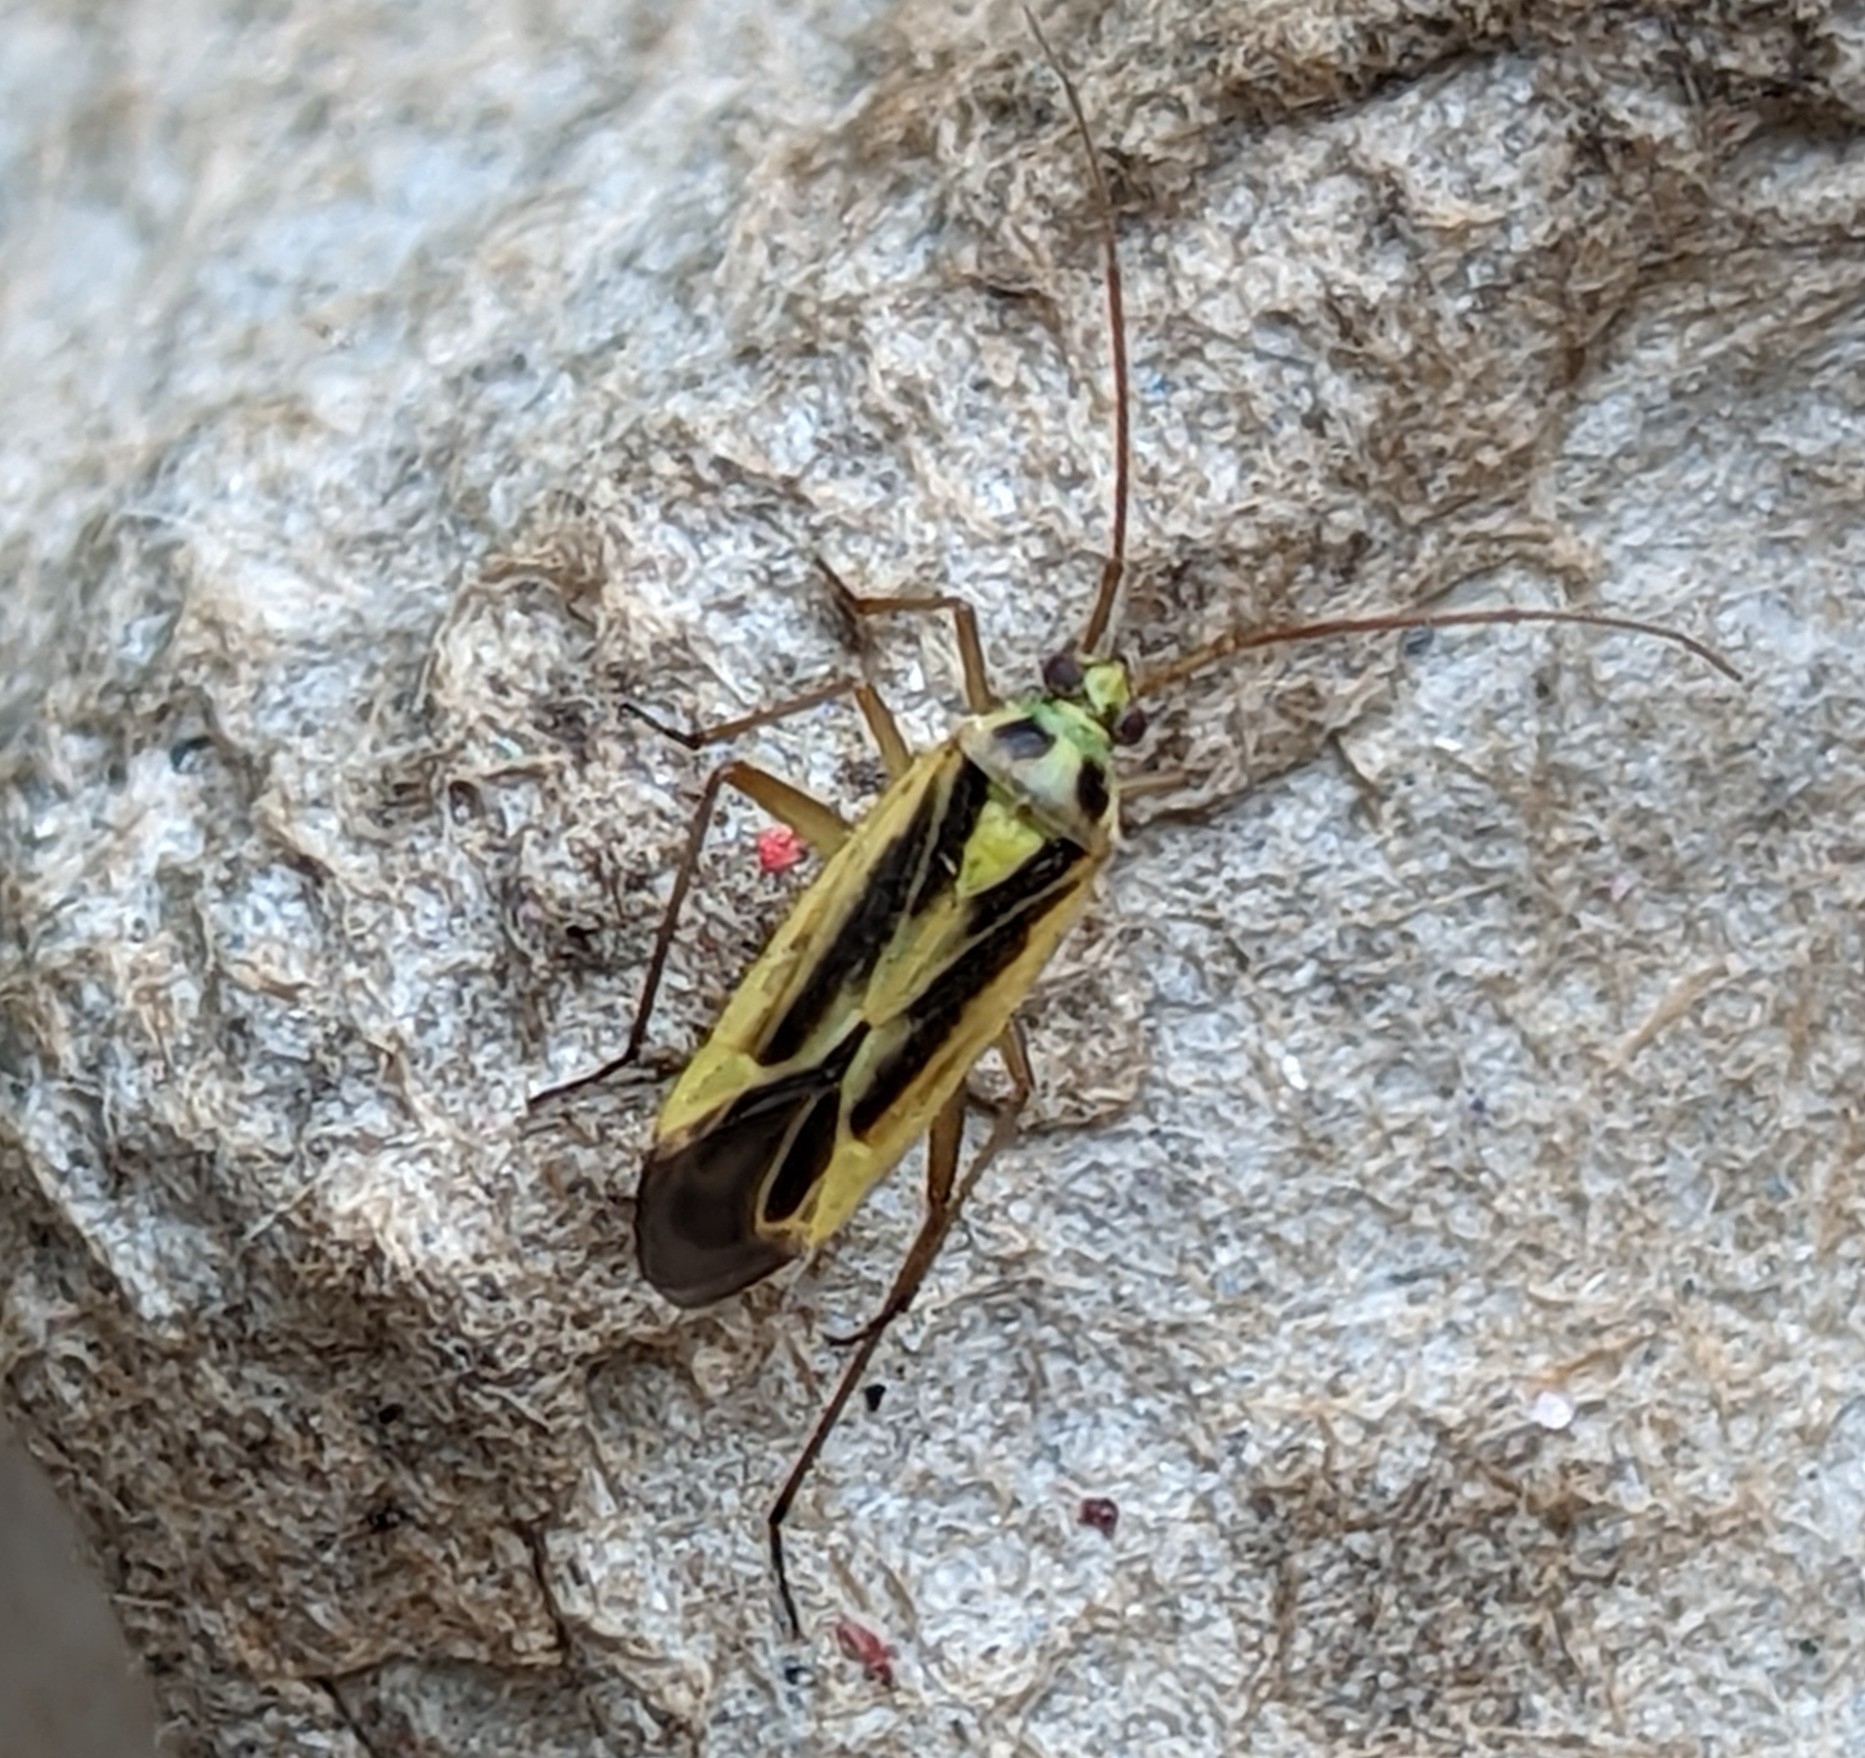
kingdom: Animalia
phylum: Arthropoda
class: Insecta
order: Hemiptera
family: Miridae
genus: Stenotus
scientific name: Stenotus binotatus
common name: Plant bug
